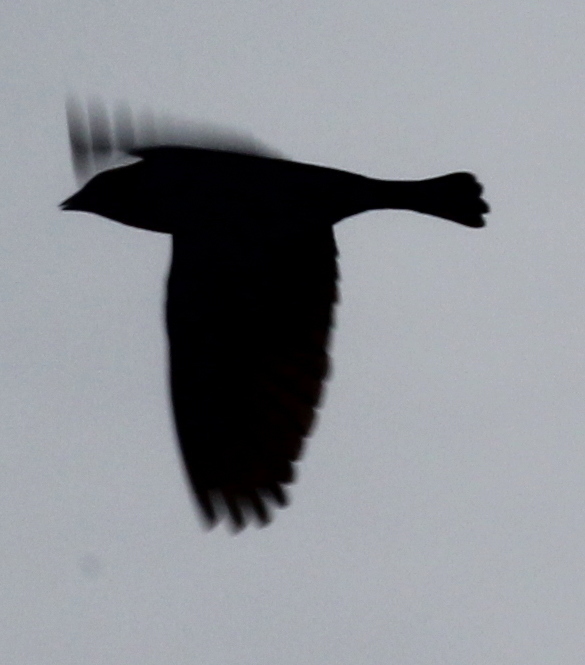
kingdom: Animalia
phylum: Chordata
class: Aves
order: Passeriformes
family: Icteridae
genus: Molothrus
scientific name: Molothrus ater
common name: Brown-headed cowbird
